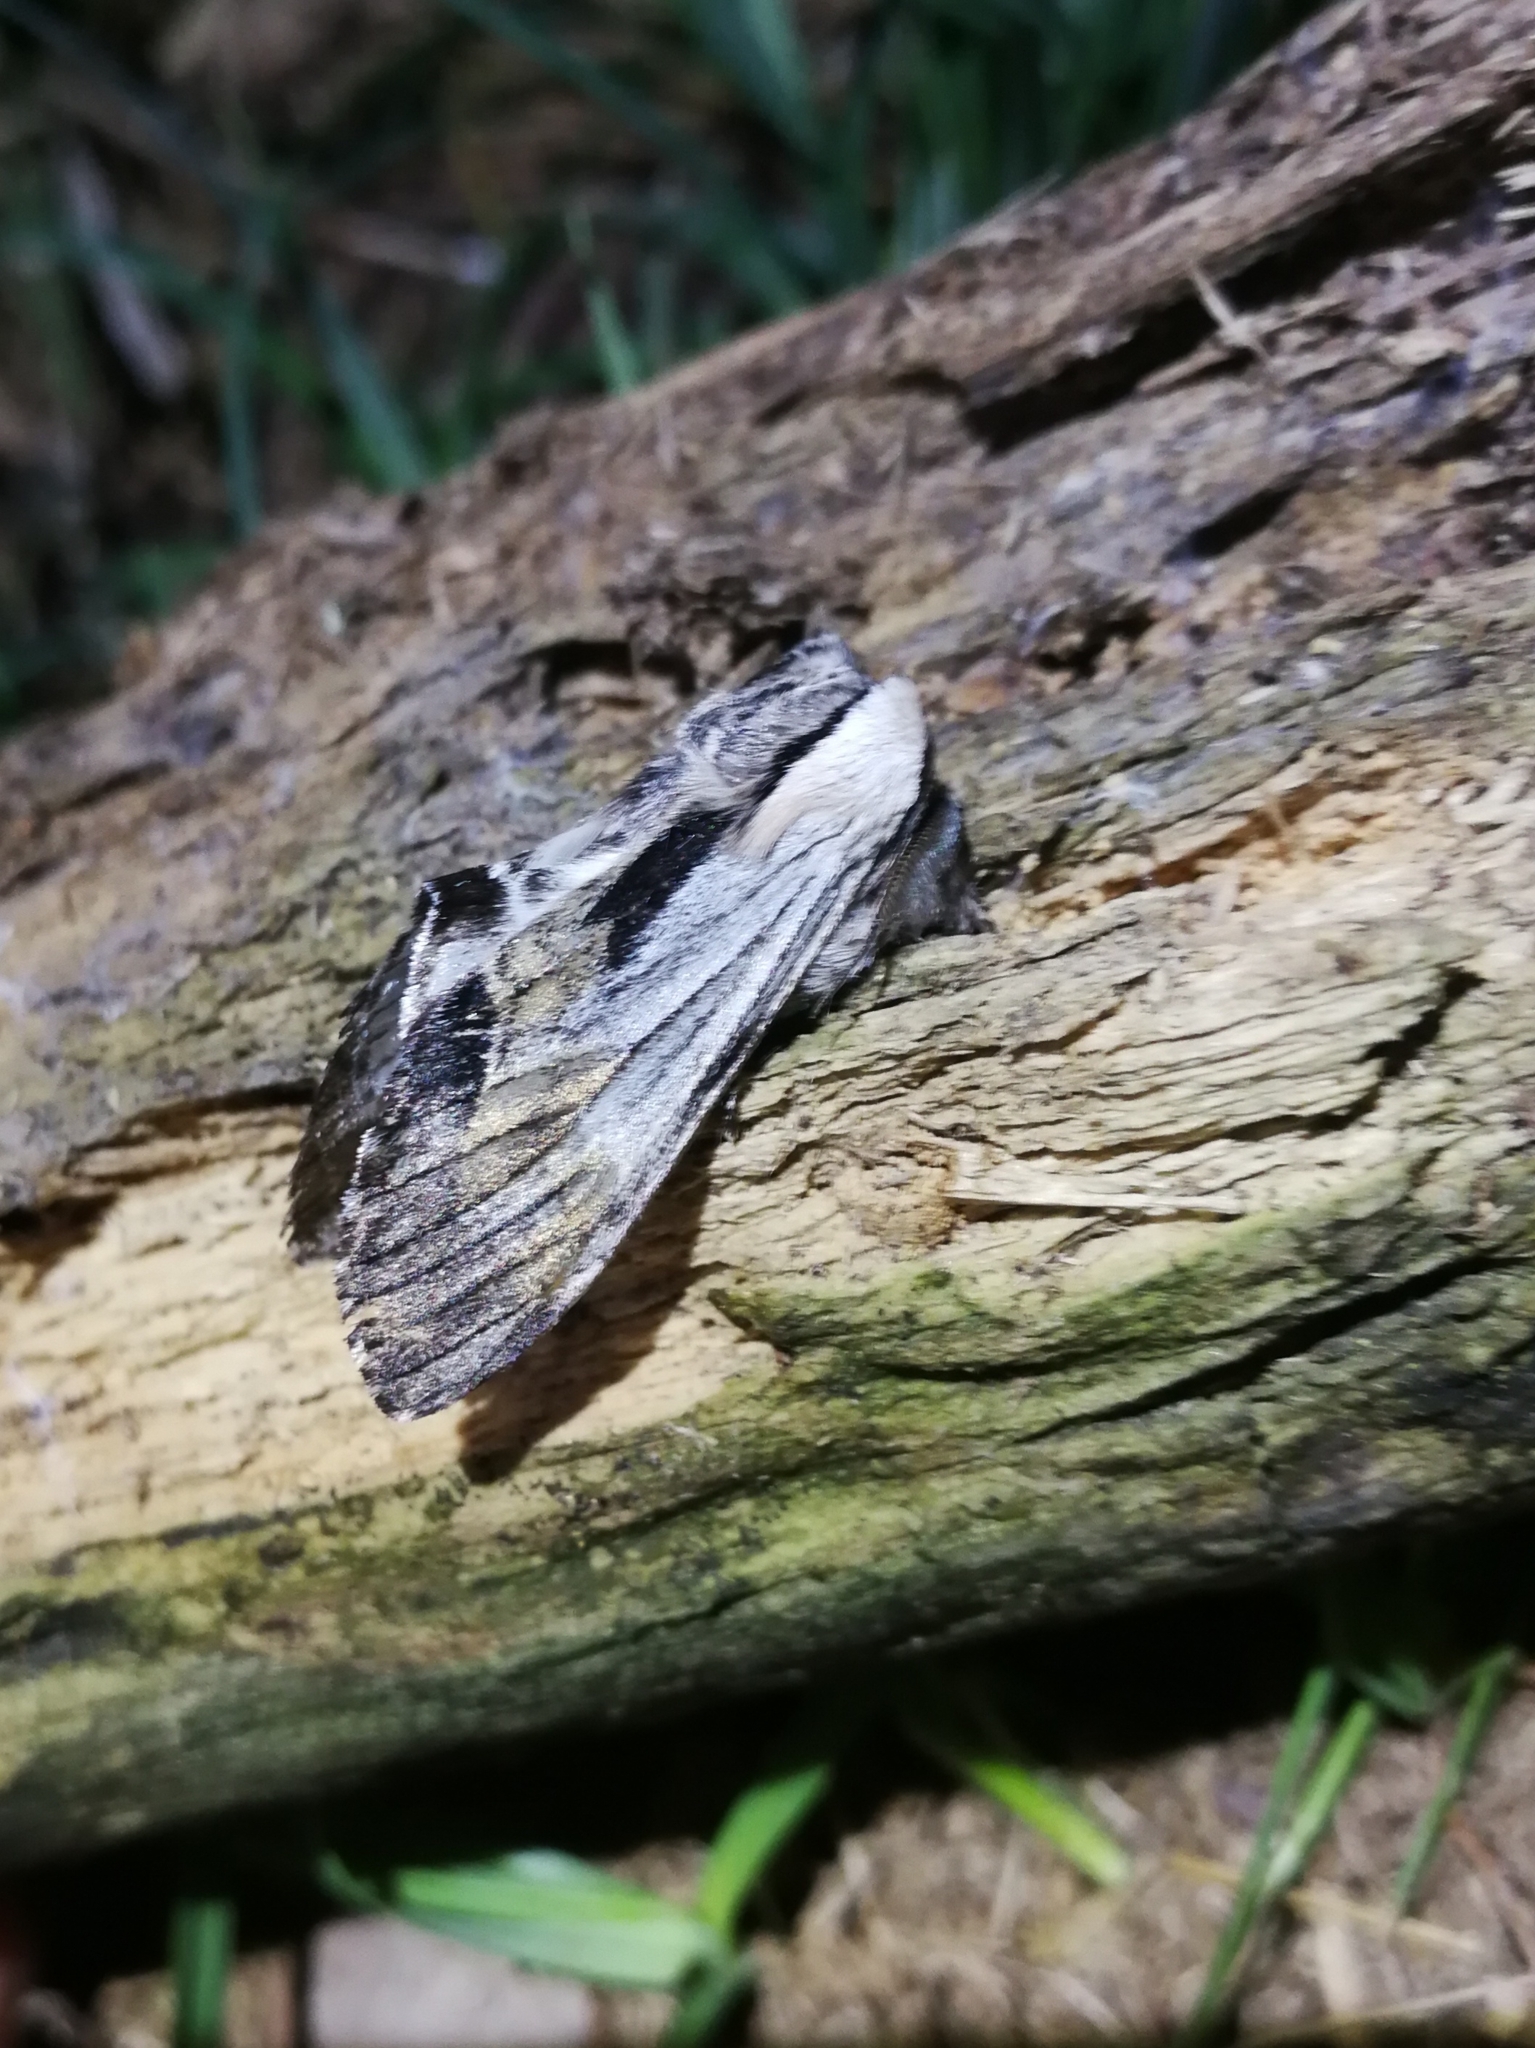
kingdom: Animalia
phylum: Arthropoda
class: Insecta
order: Lepidoptera
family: Notodontidae
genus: Harpyia
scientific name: Harpyia milhauseri
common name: Tawny prominent
